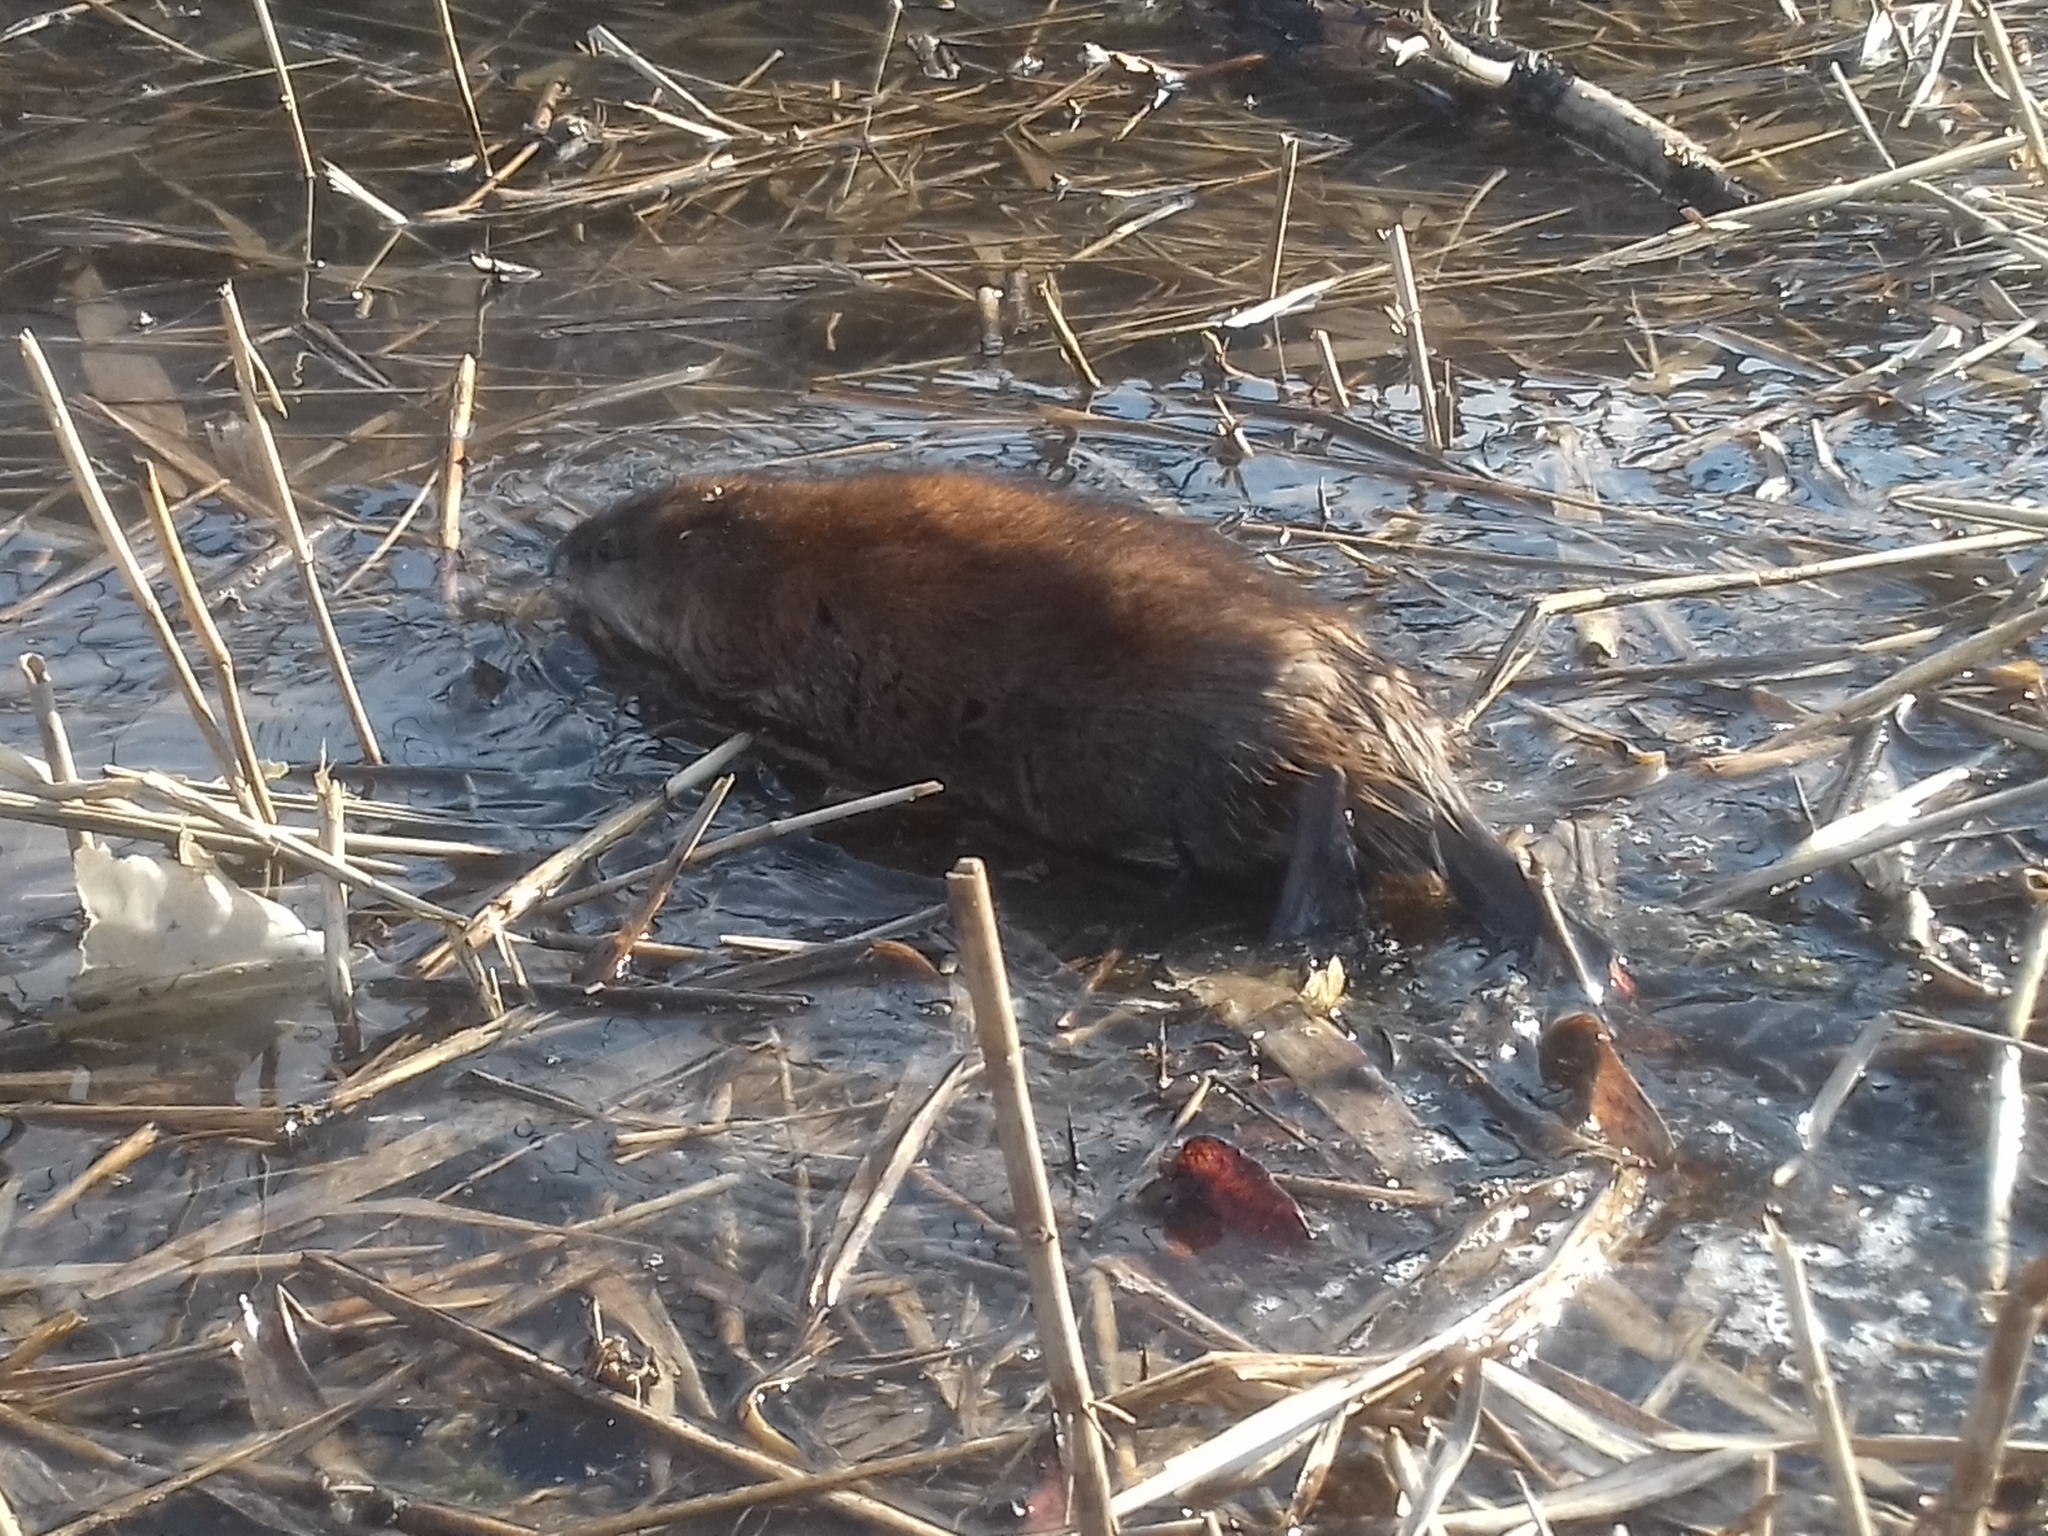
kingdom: Animalia
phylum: Chordata
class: Mammalia
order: Rodentia
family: Cricetidae
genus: Ondatra
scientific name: Ondatra zibethicus
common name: Muskrat
